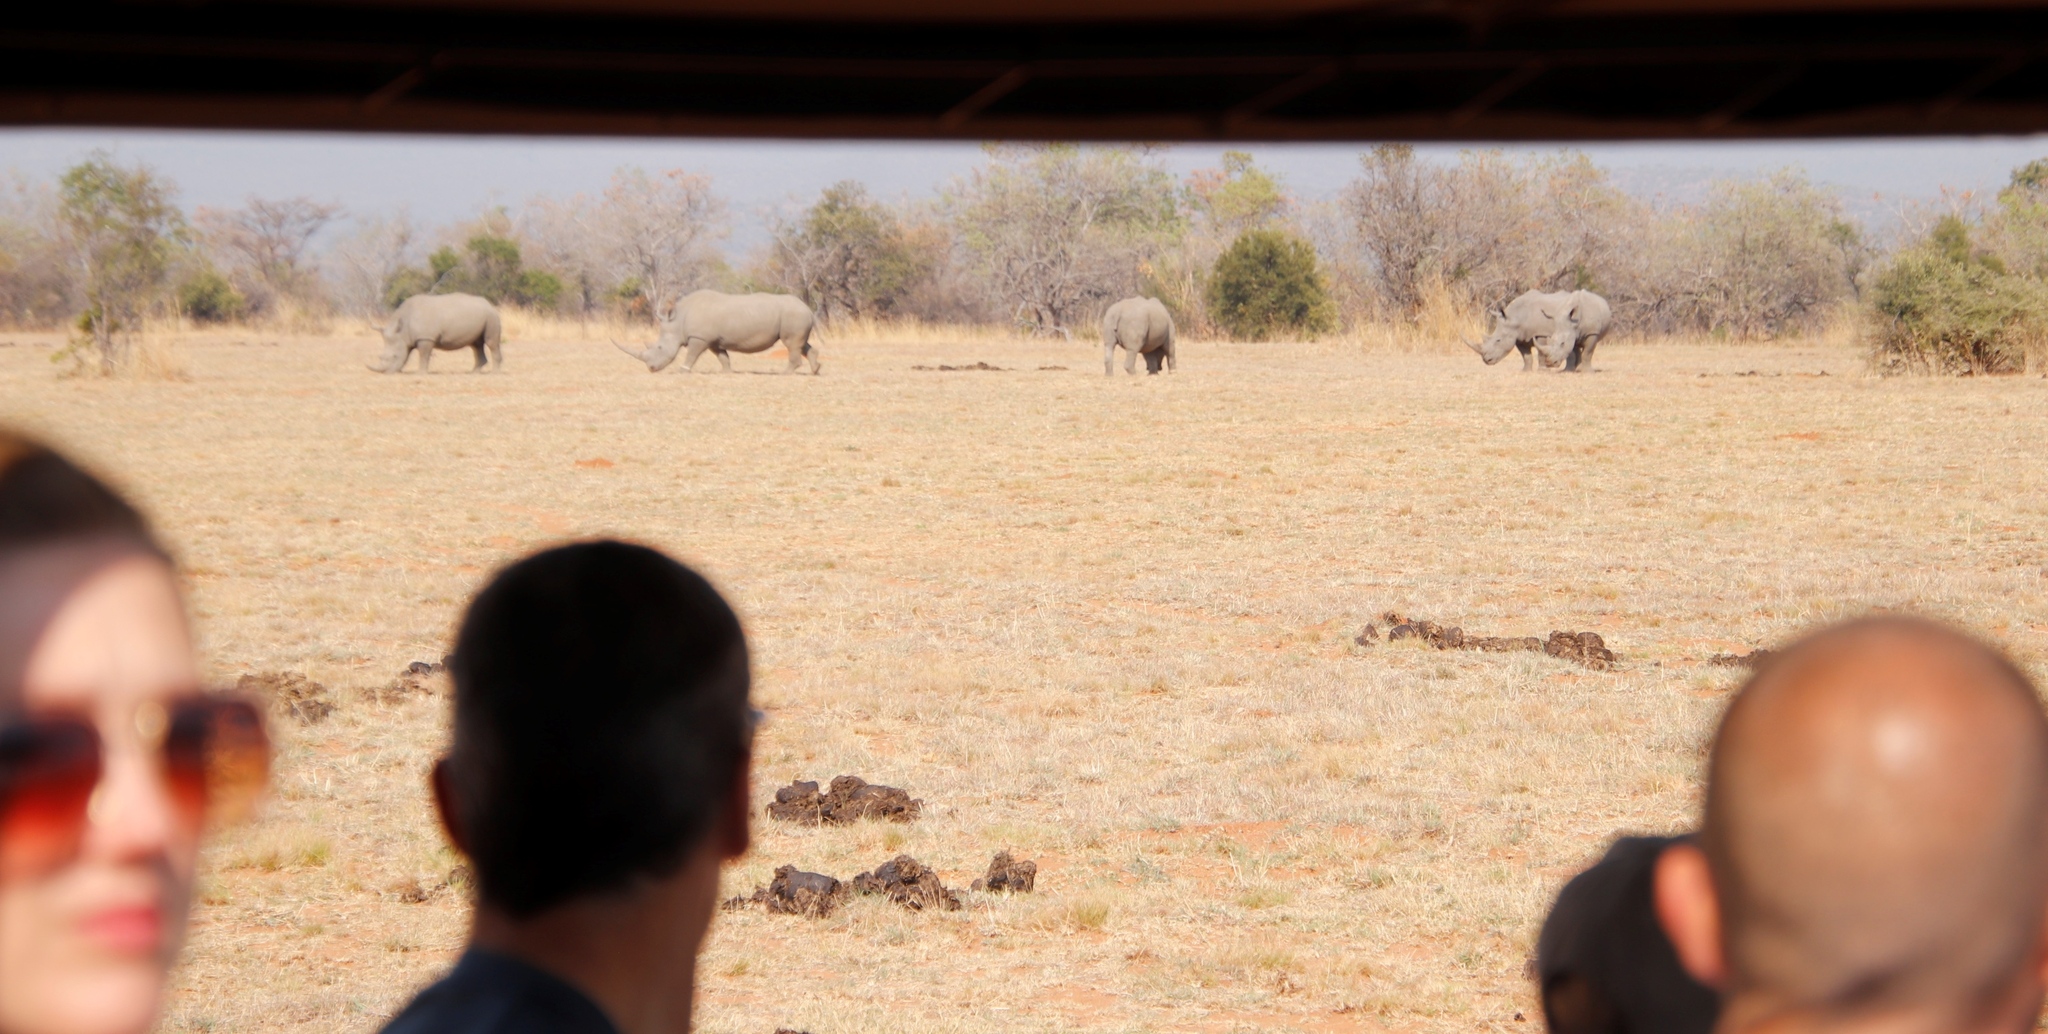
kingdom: Animalia
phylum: Chordata
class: Mammalia
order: Perissodactyla
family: Rhinocerotidae
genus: Ceratotherium
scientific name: Ceratotherium simum
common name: White rhinoceros
